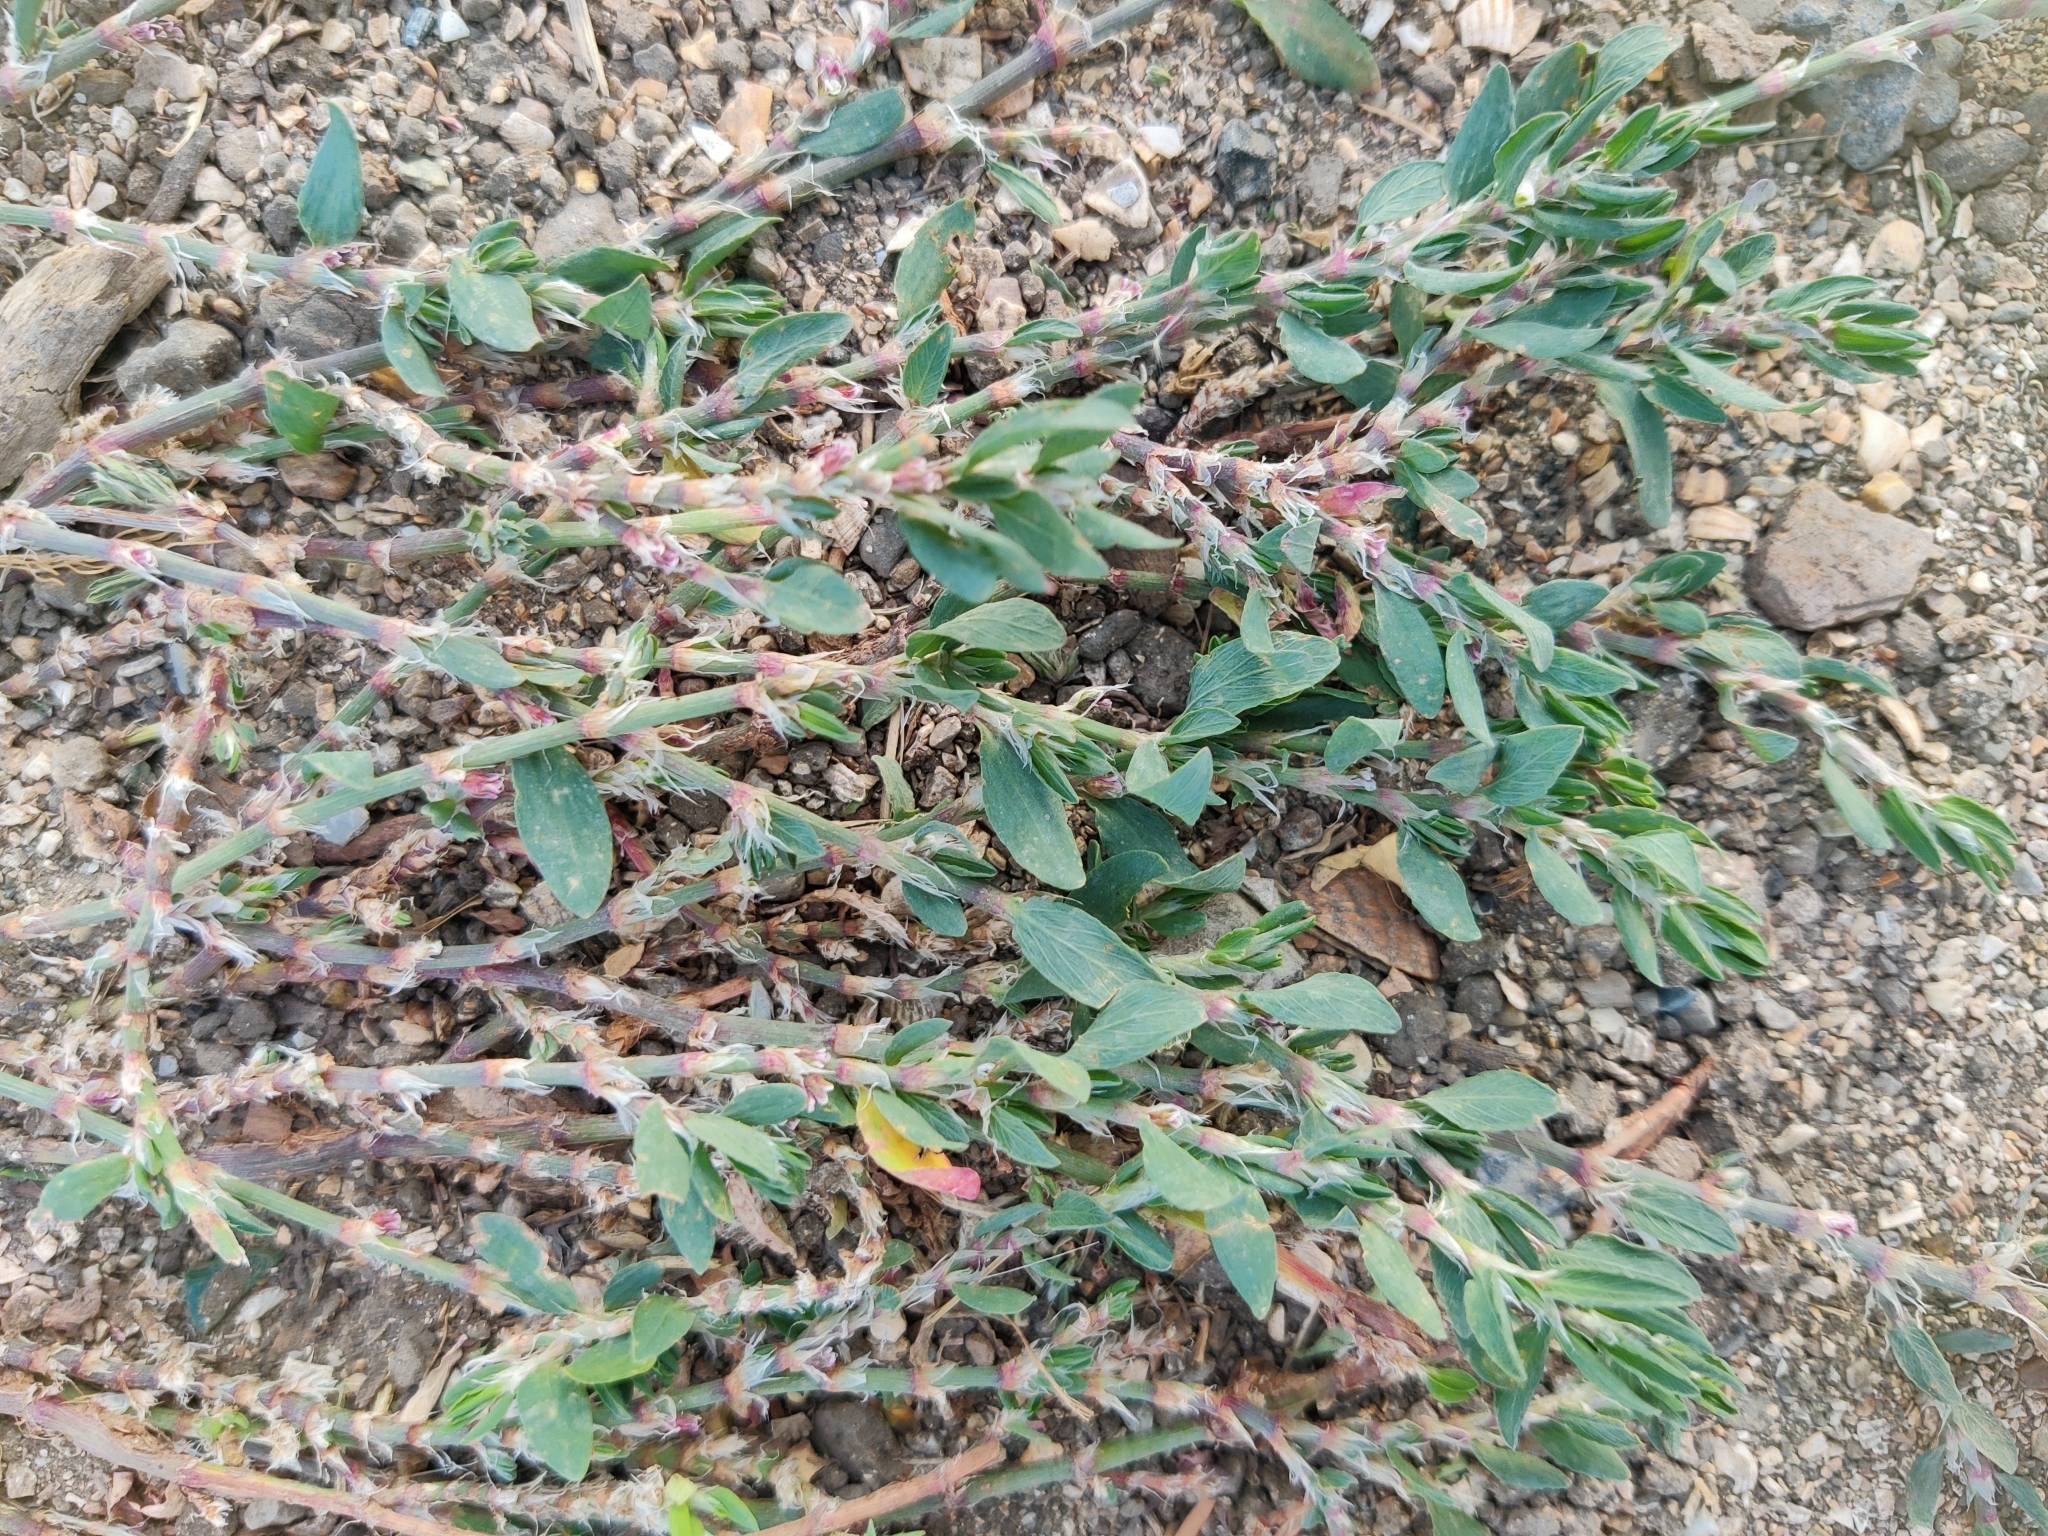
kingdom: Plantae
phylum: Tracheophyta
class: Magnoliopsida
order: Caryophyllales
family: Polygonaceae
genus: Polygonum
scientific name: Polygonum arenastrum
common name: Equal-leaved knotgrass
